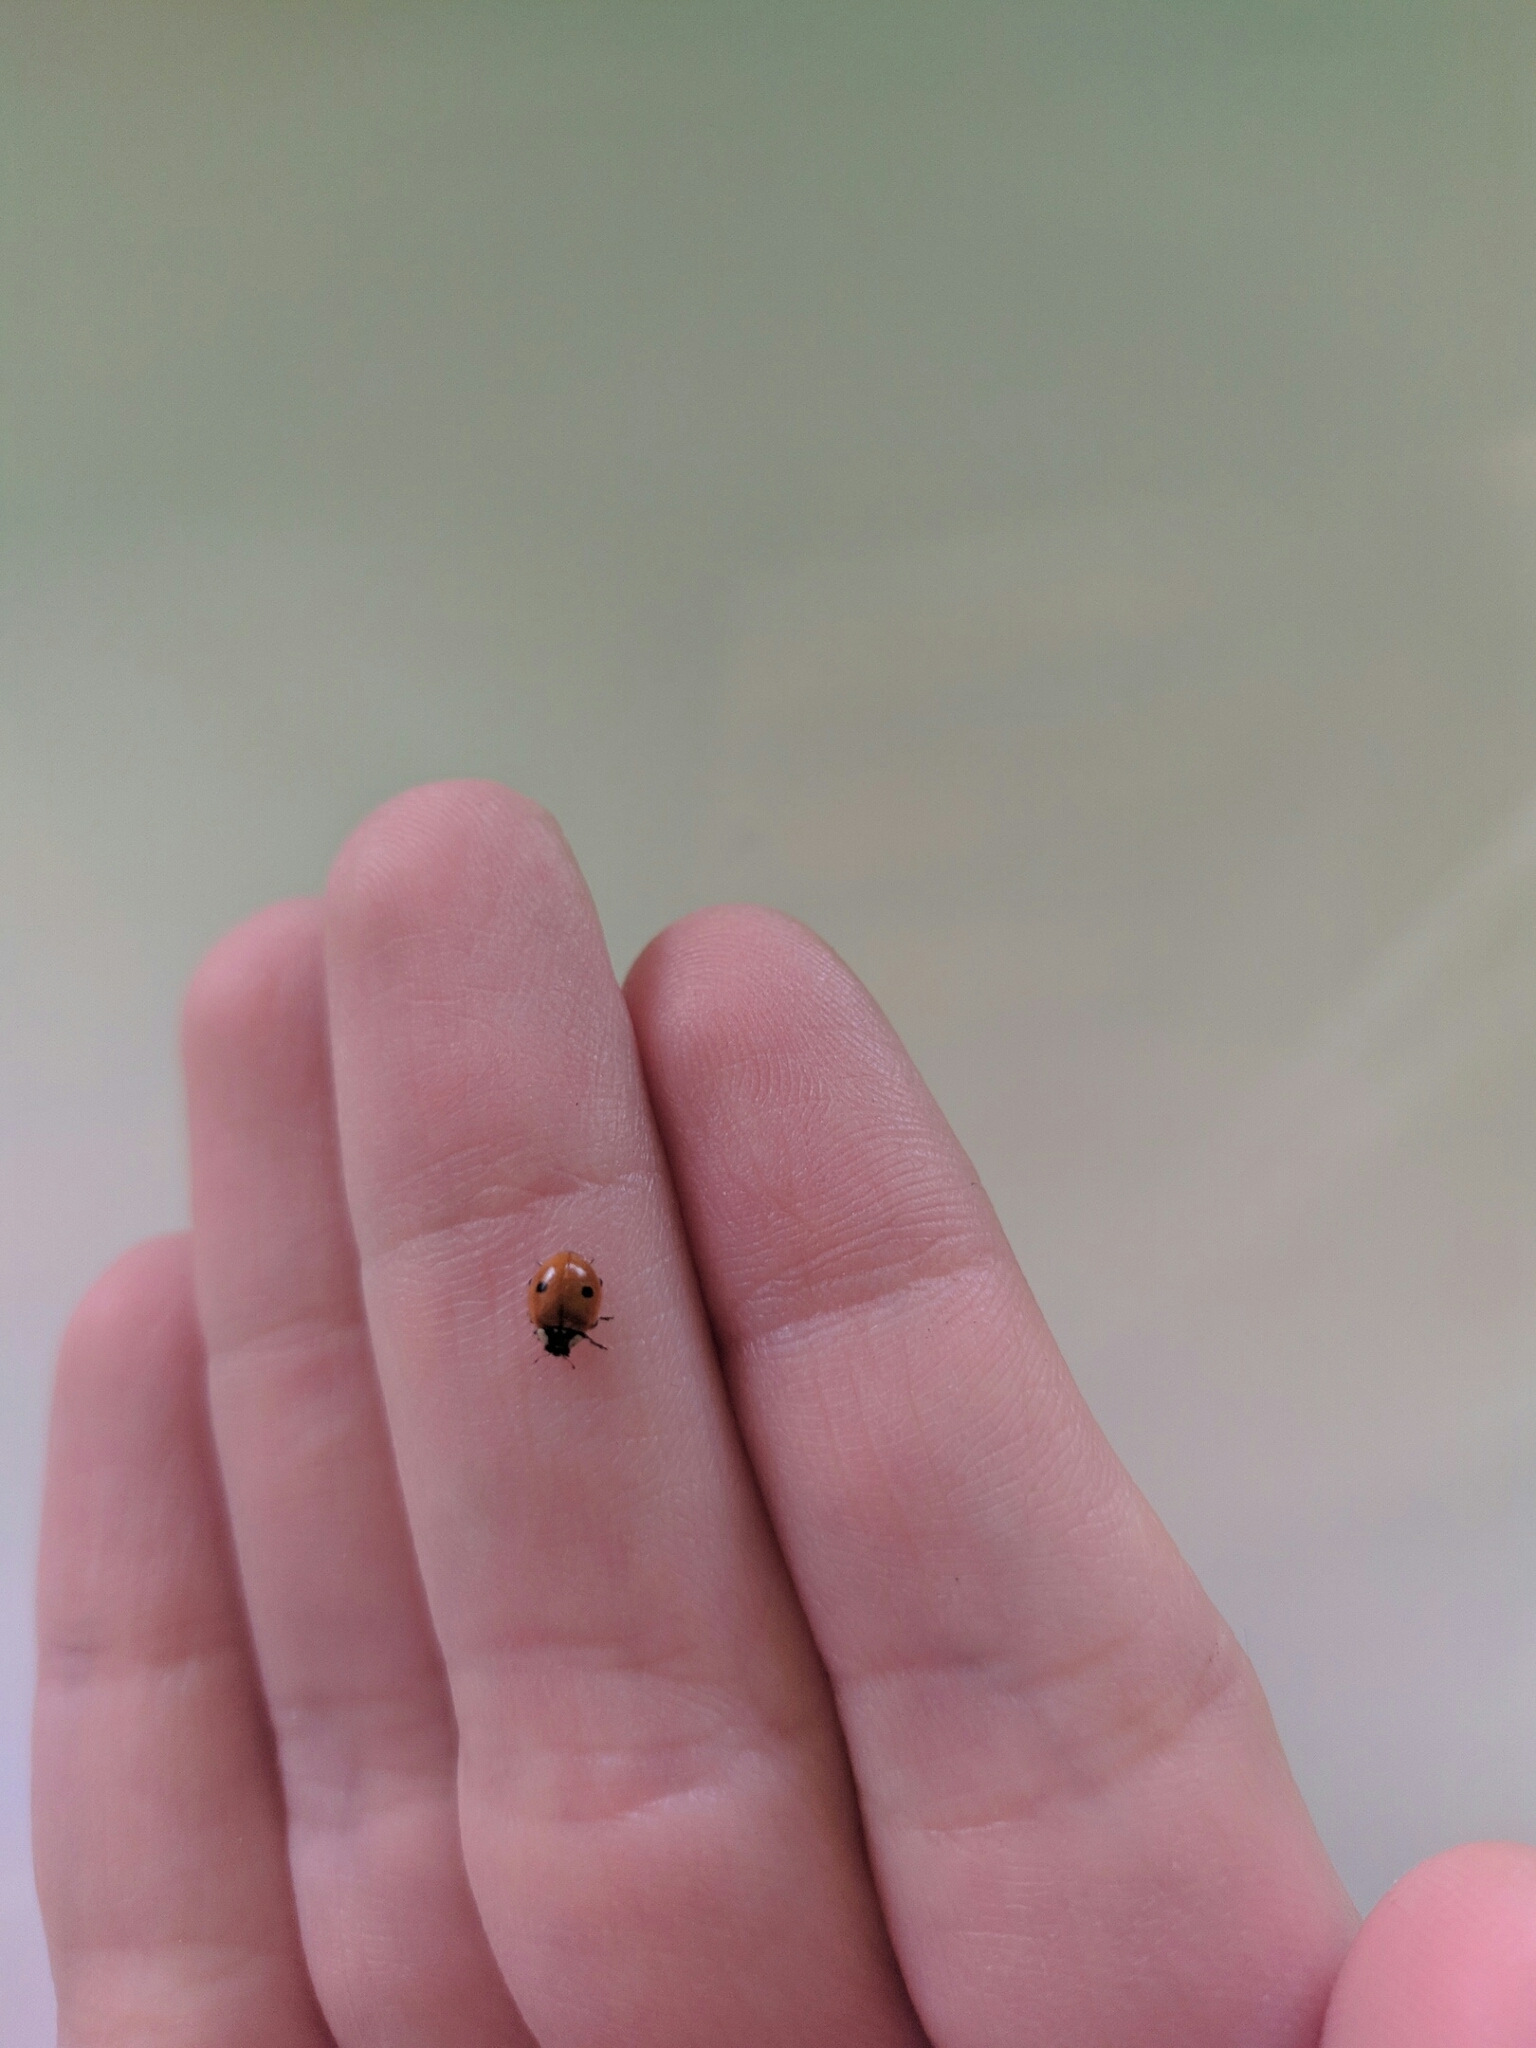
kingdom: Animalia
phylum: Arthropoda
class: Insecta
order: Coleoptera
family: Coccinellidae
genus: Adalia
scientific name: Adalia bipunctata
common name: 2-spot ladybird
